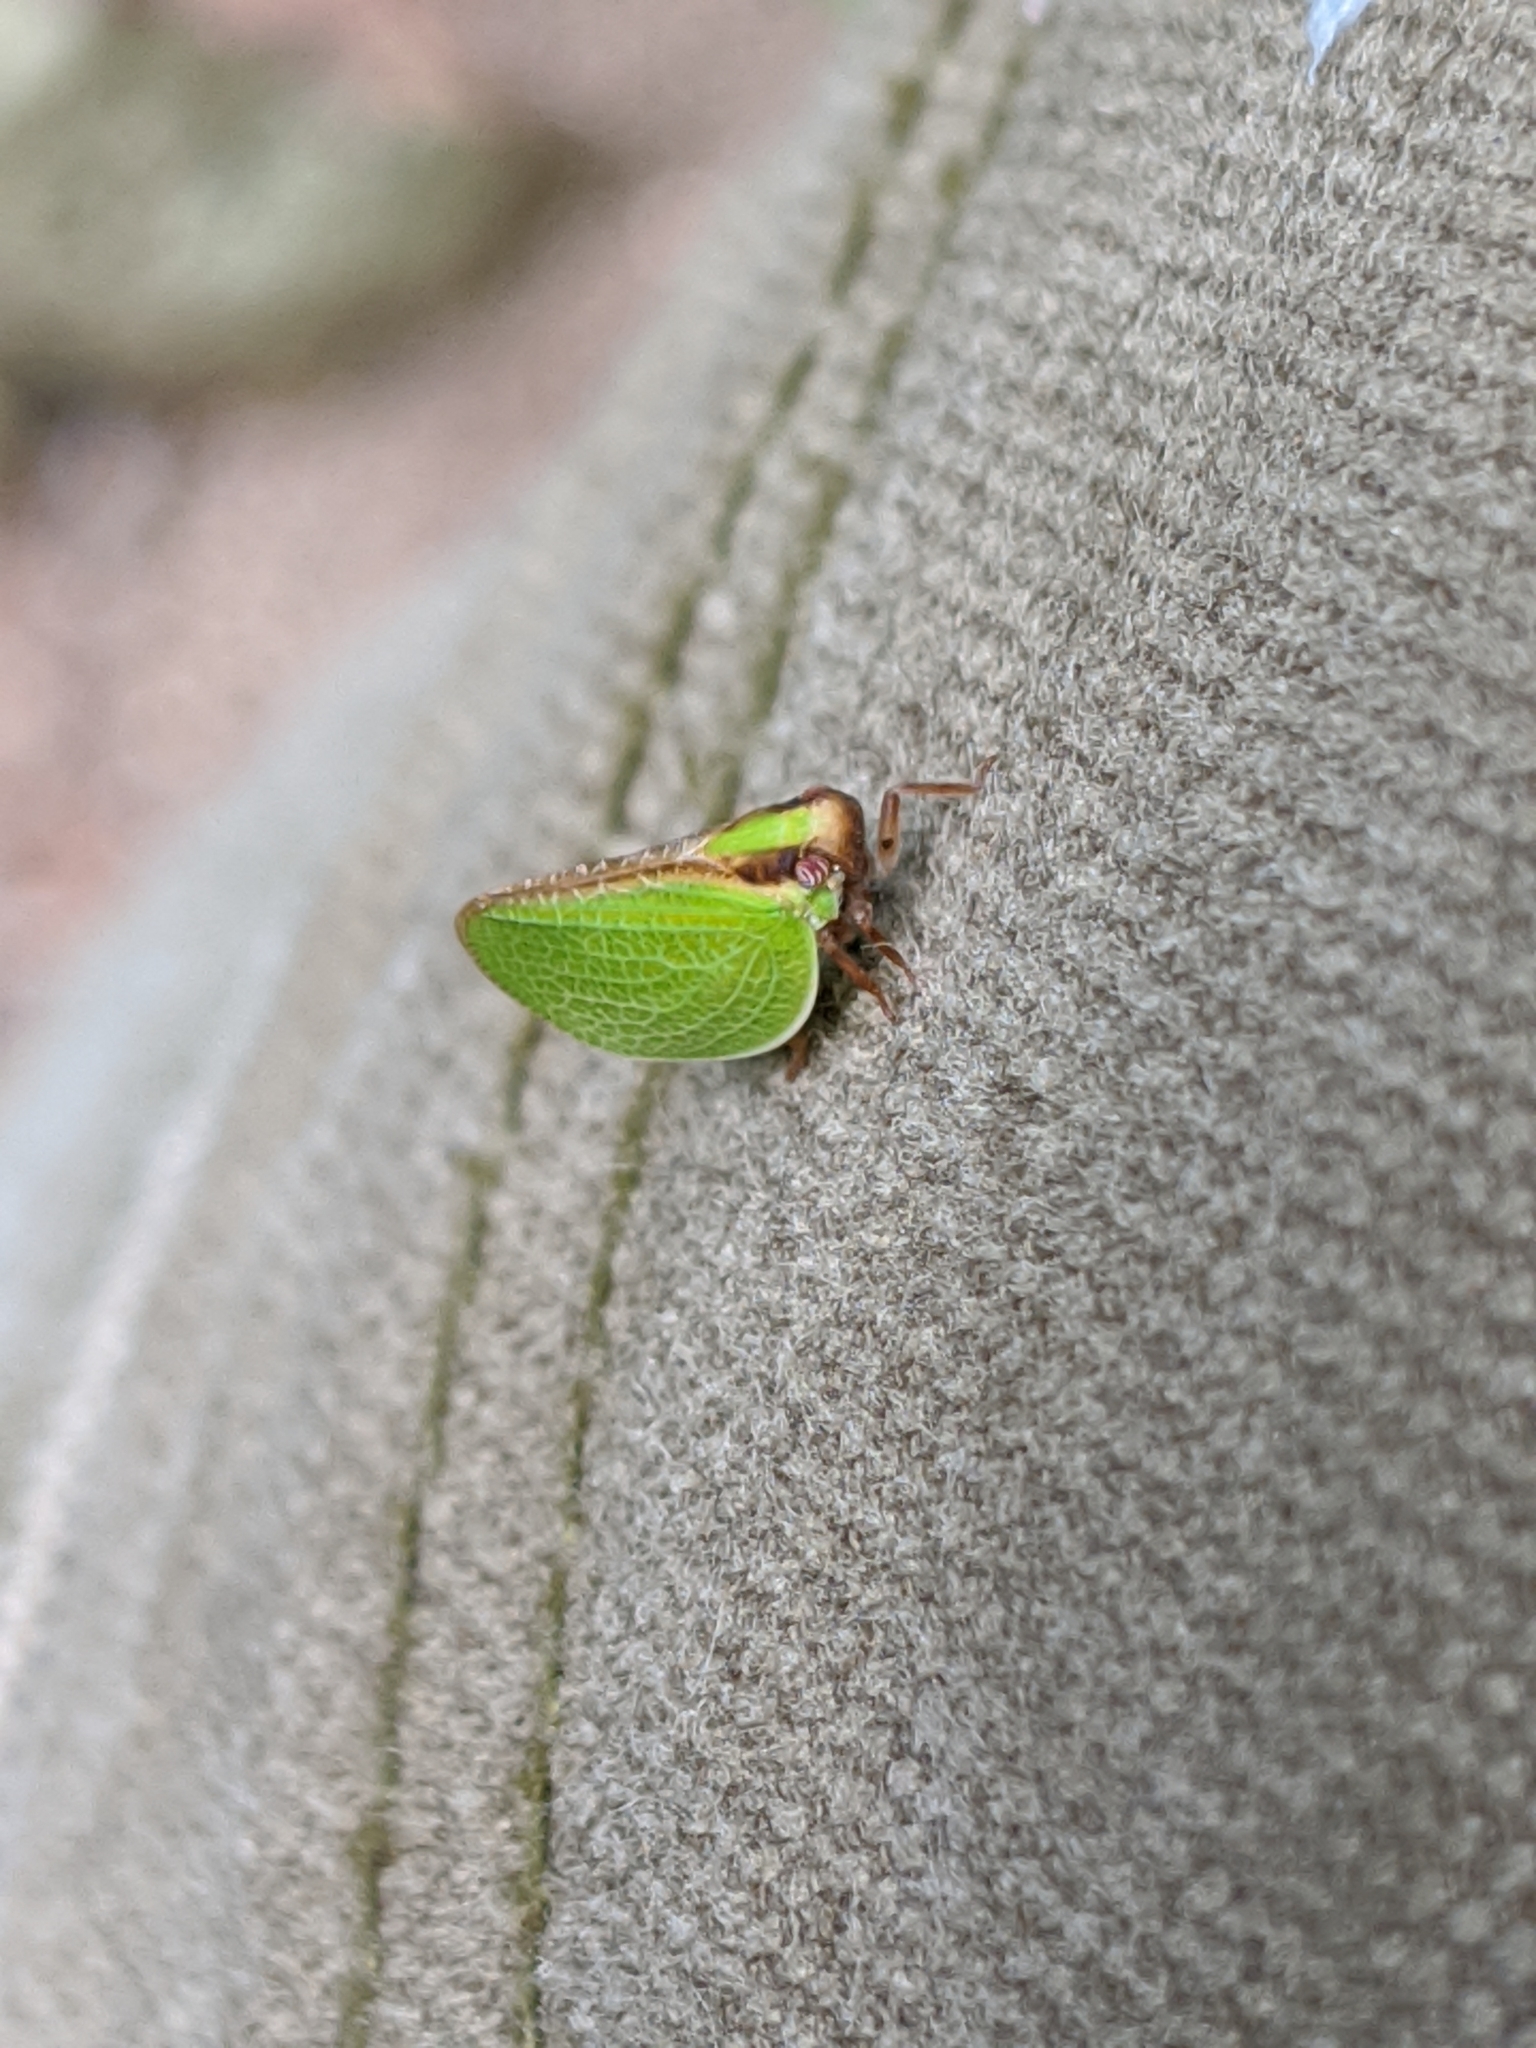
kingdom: Animalia
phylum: Arthropoda
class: Insecta
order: Hemiptera
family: Acanaloniidae
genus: Acanalonia
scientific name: Acanalonia bivittata
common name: Two-striped planthopper
